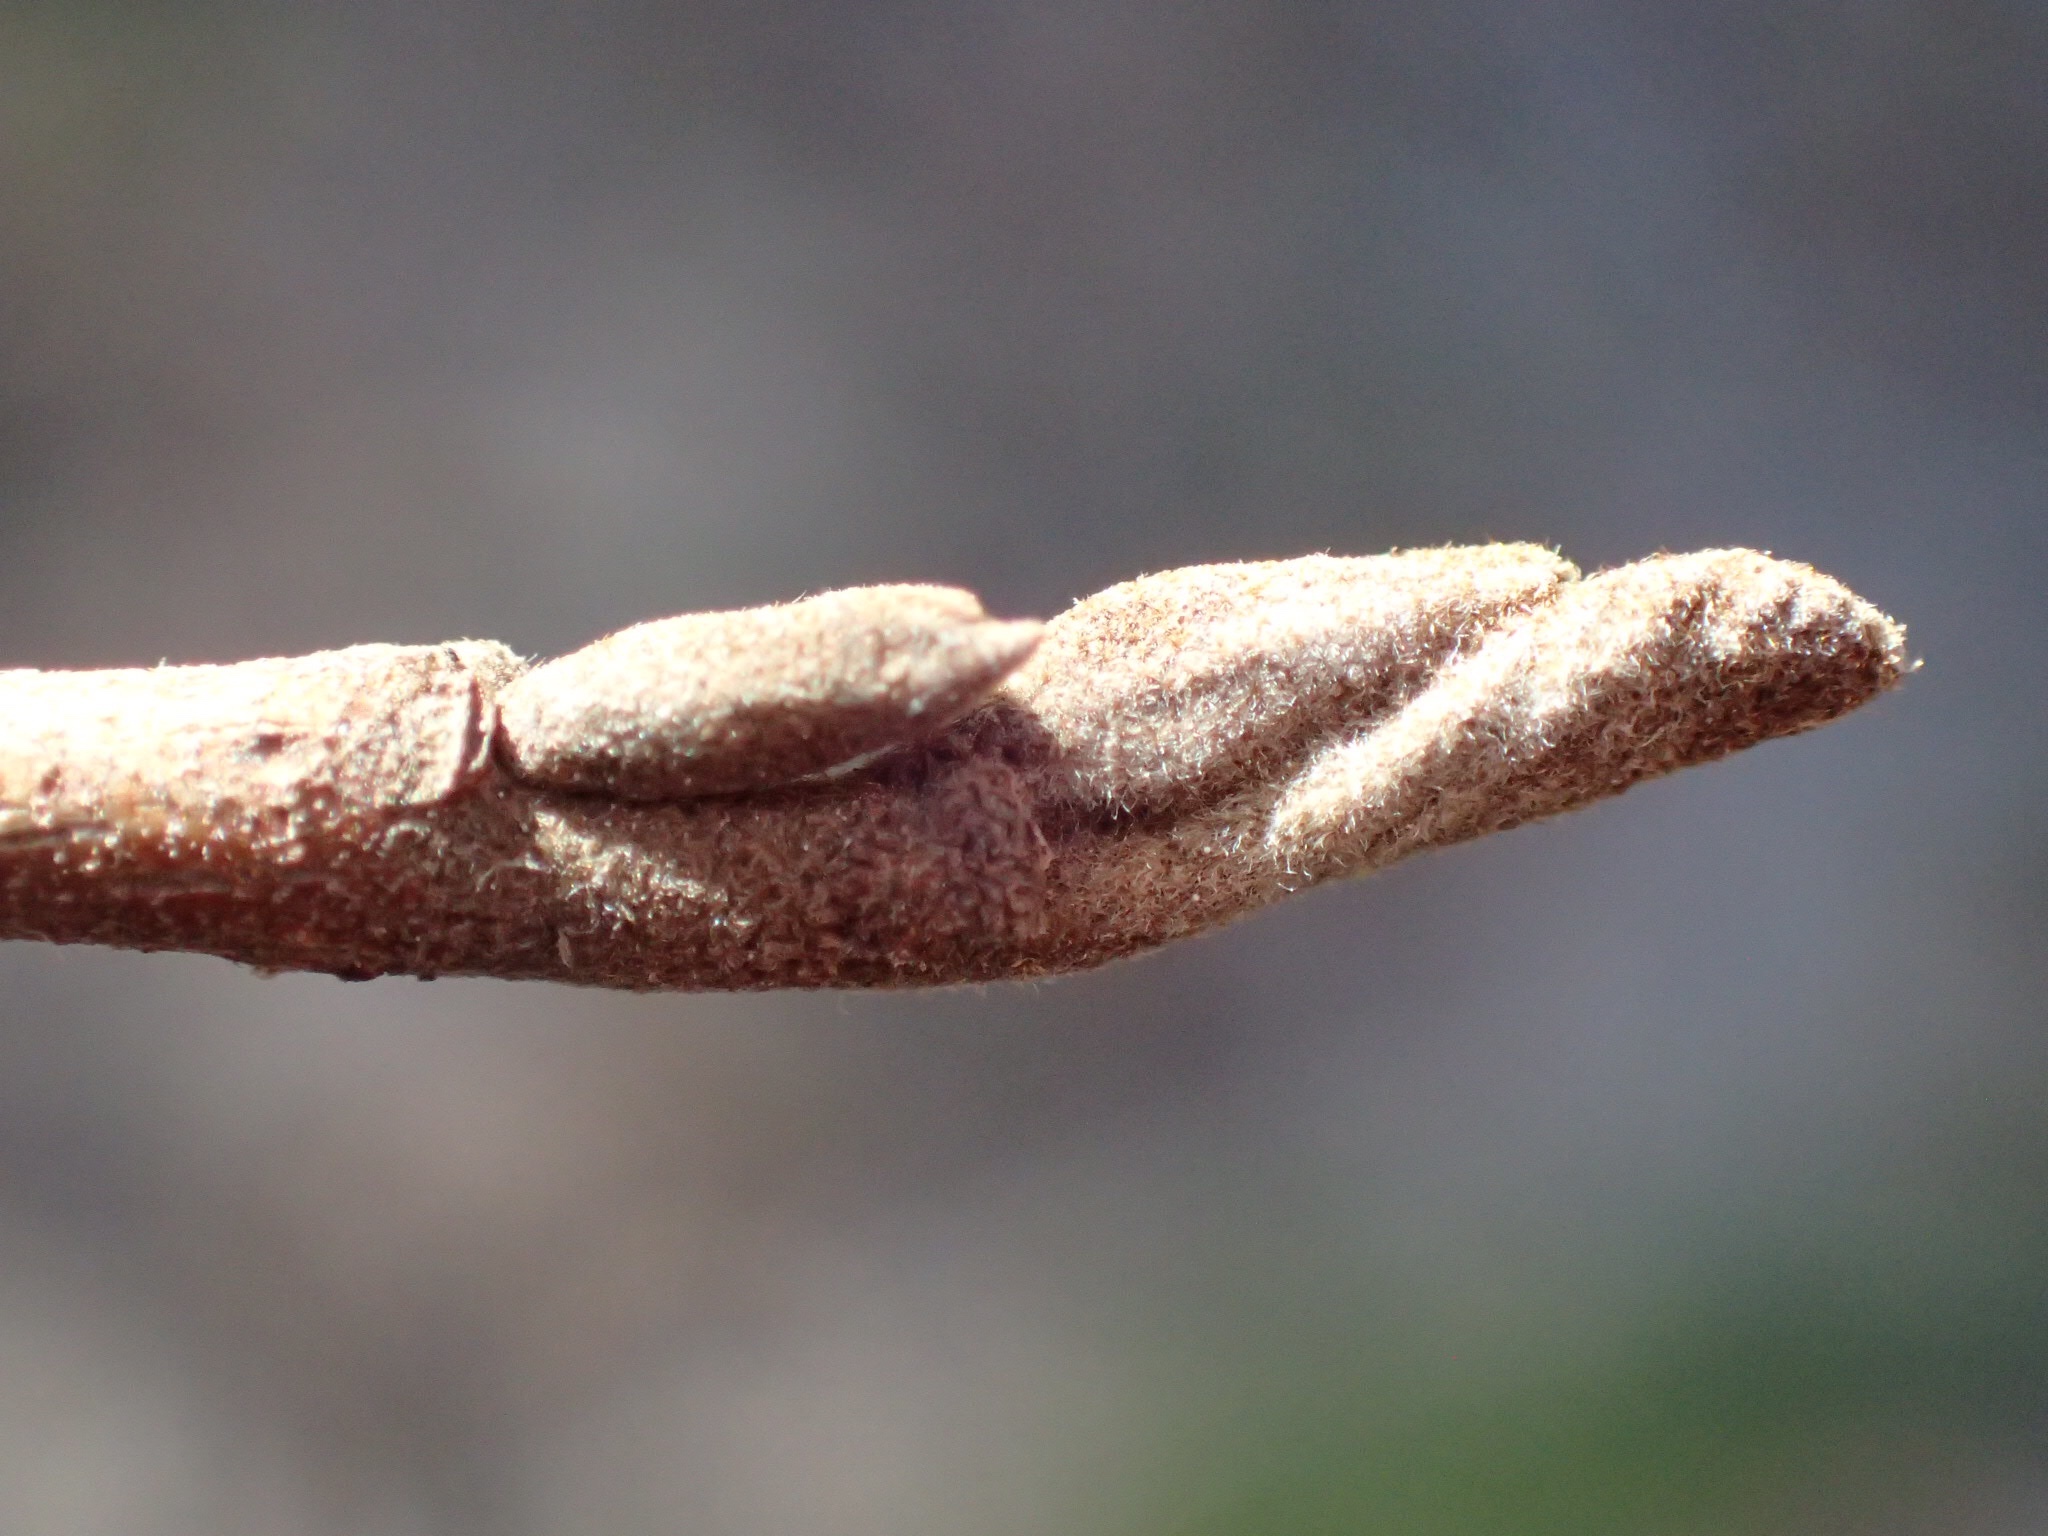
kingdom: Plantae
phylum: Tracheophyta
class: Magnoliopsida
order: Saxifragales
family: Hamamelidaceae
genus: Hamamelis
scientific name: Hamamelis virginiana
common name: Witch-hazel
